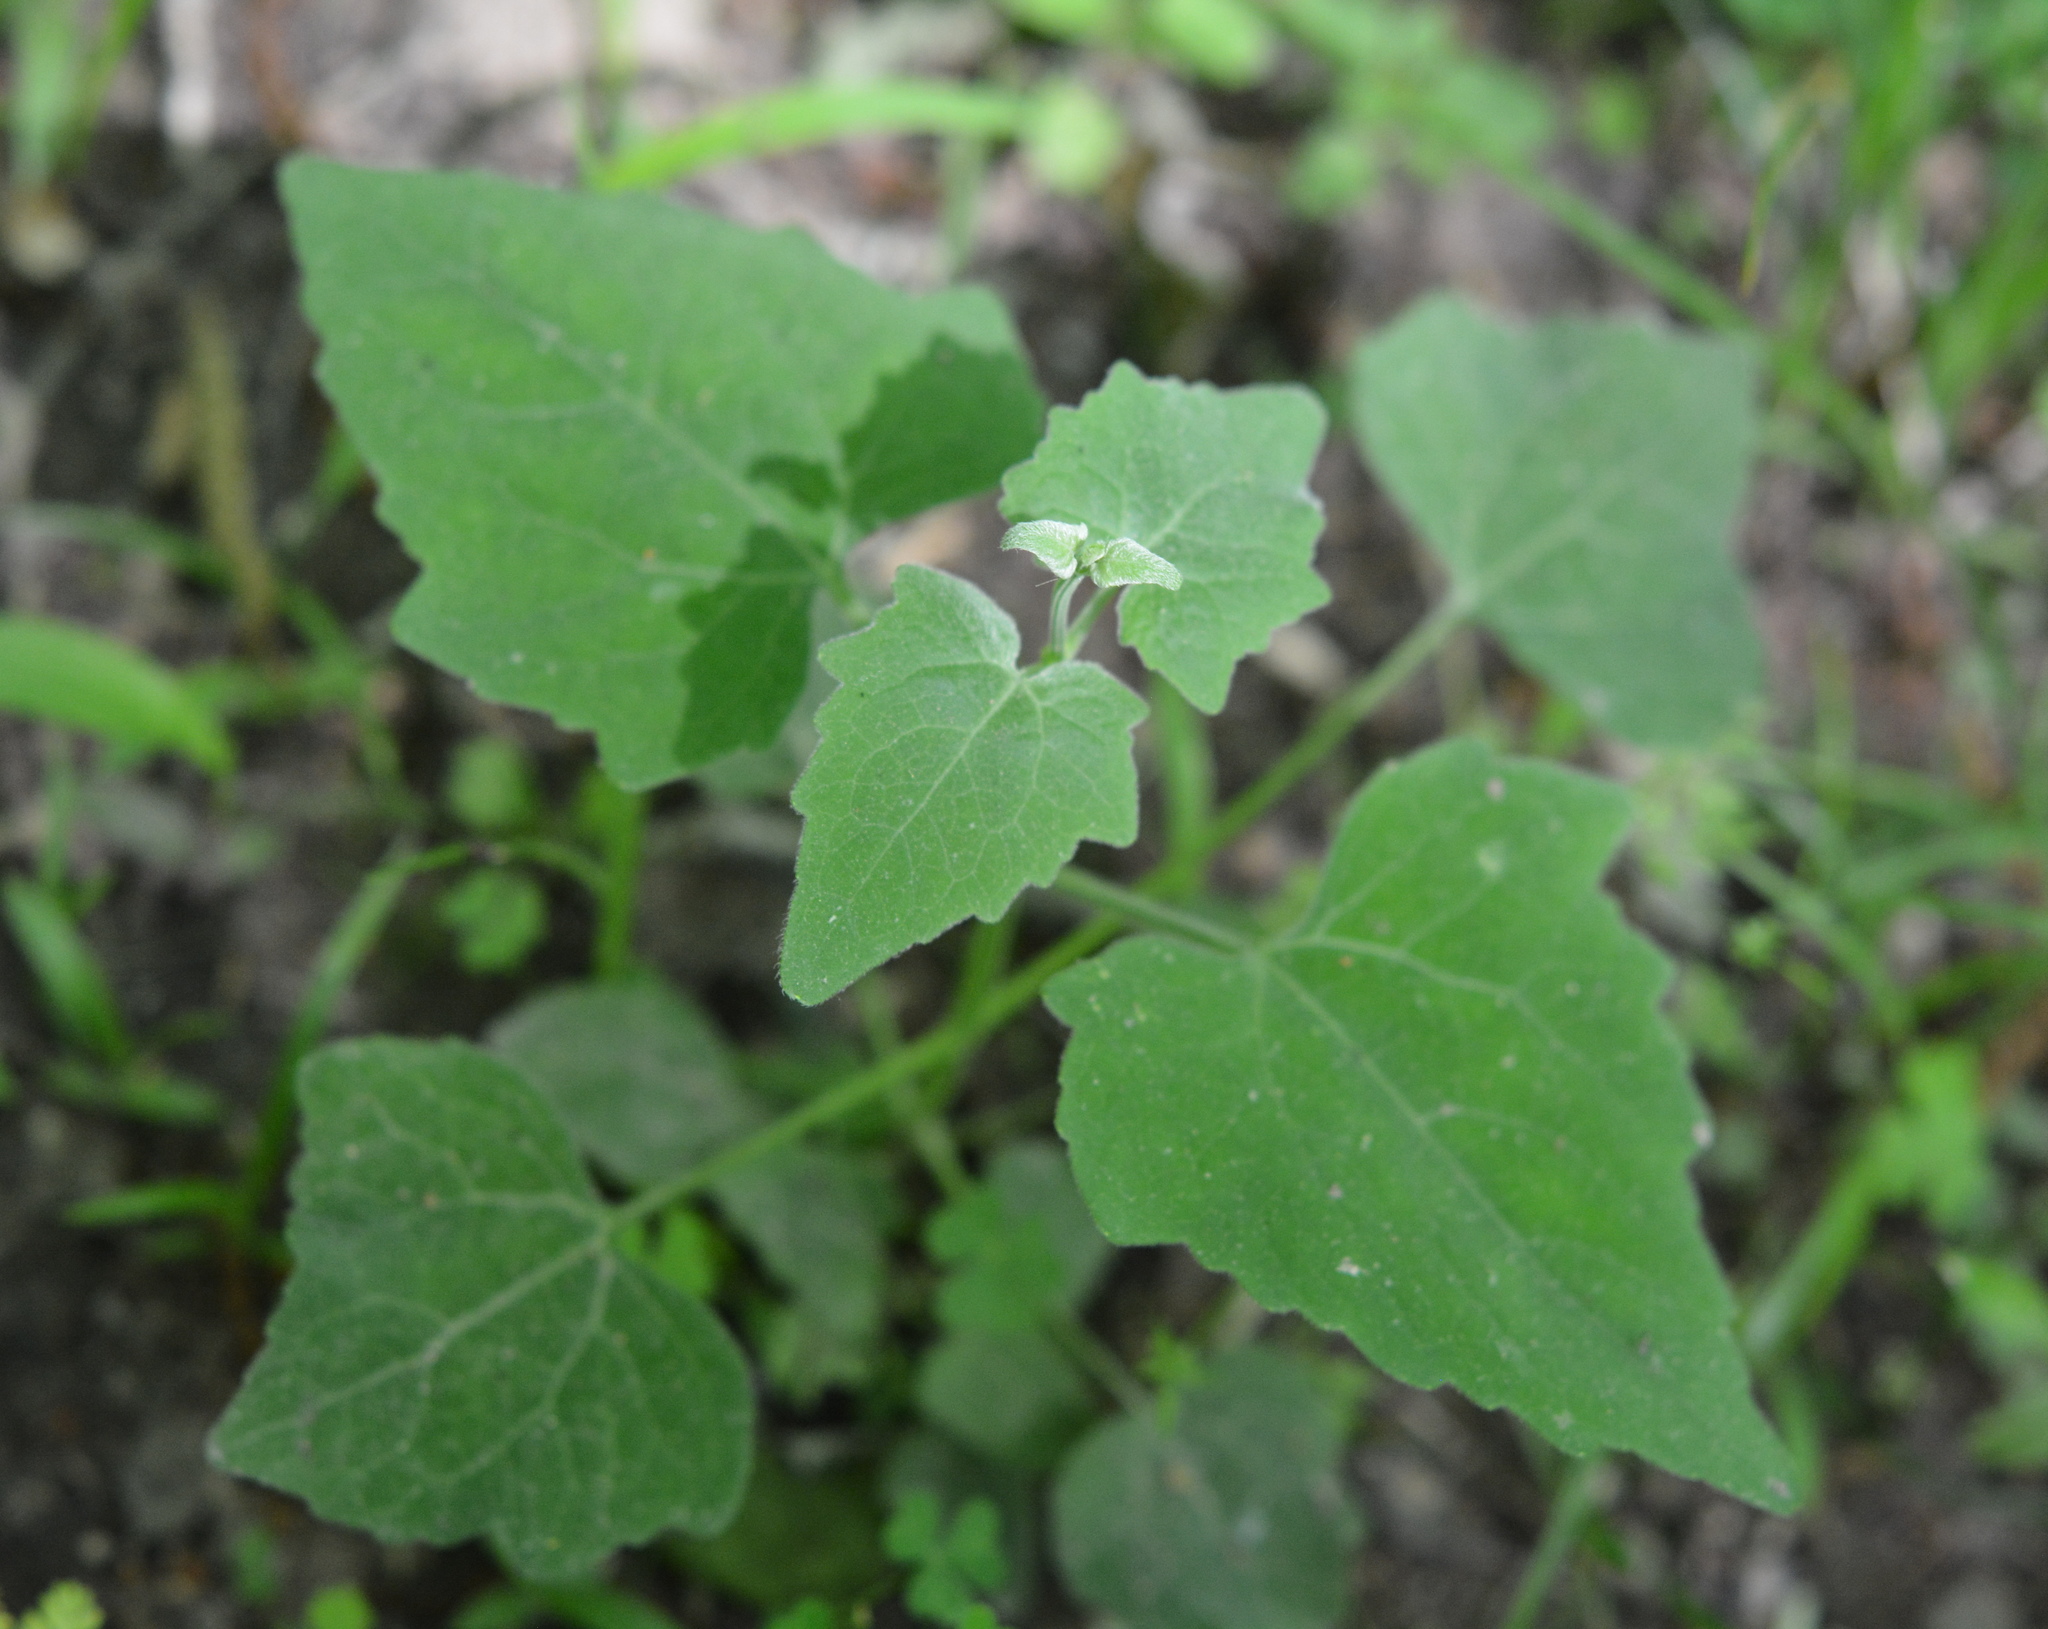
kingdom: Plantae
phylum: Tracheophyta
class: Magnoliopsida
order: Asterales
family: Asteraceae
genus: Mikania
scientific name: Mikania cordifolia
